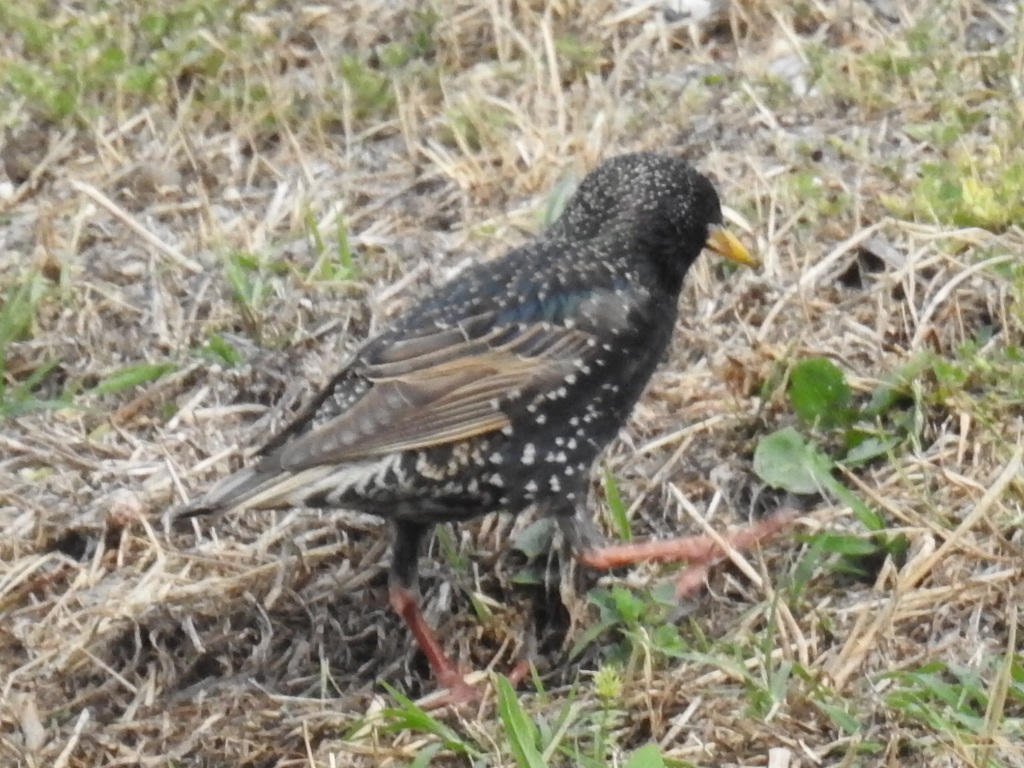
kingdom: Animalia
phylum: Chordata
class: Aves
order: Passeriformes
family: Sturnidae
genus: Sturnus
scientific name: Sturnus vulgaris
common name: Common starling
